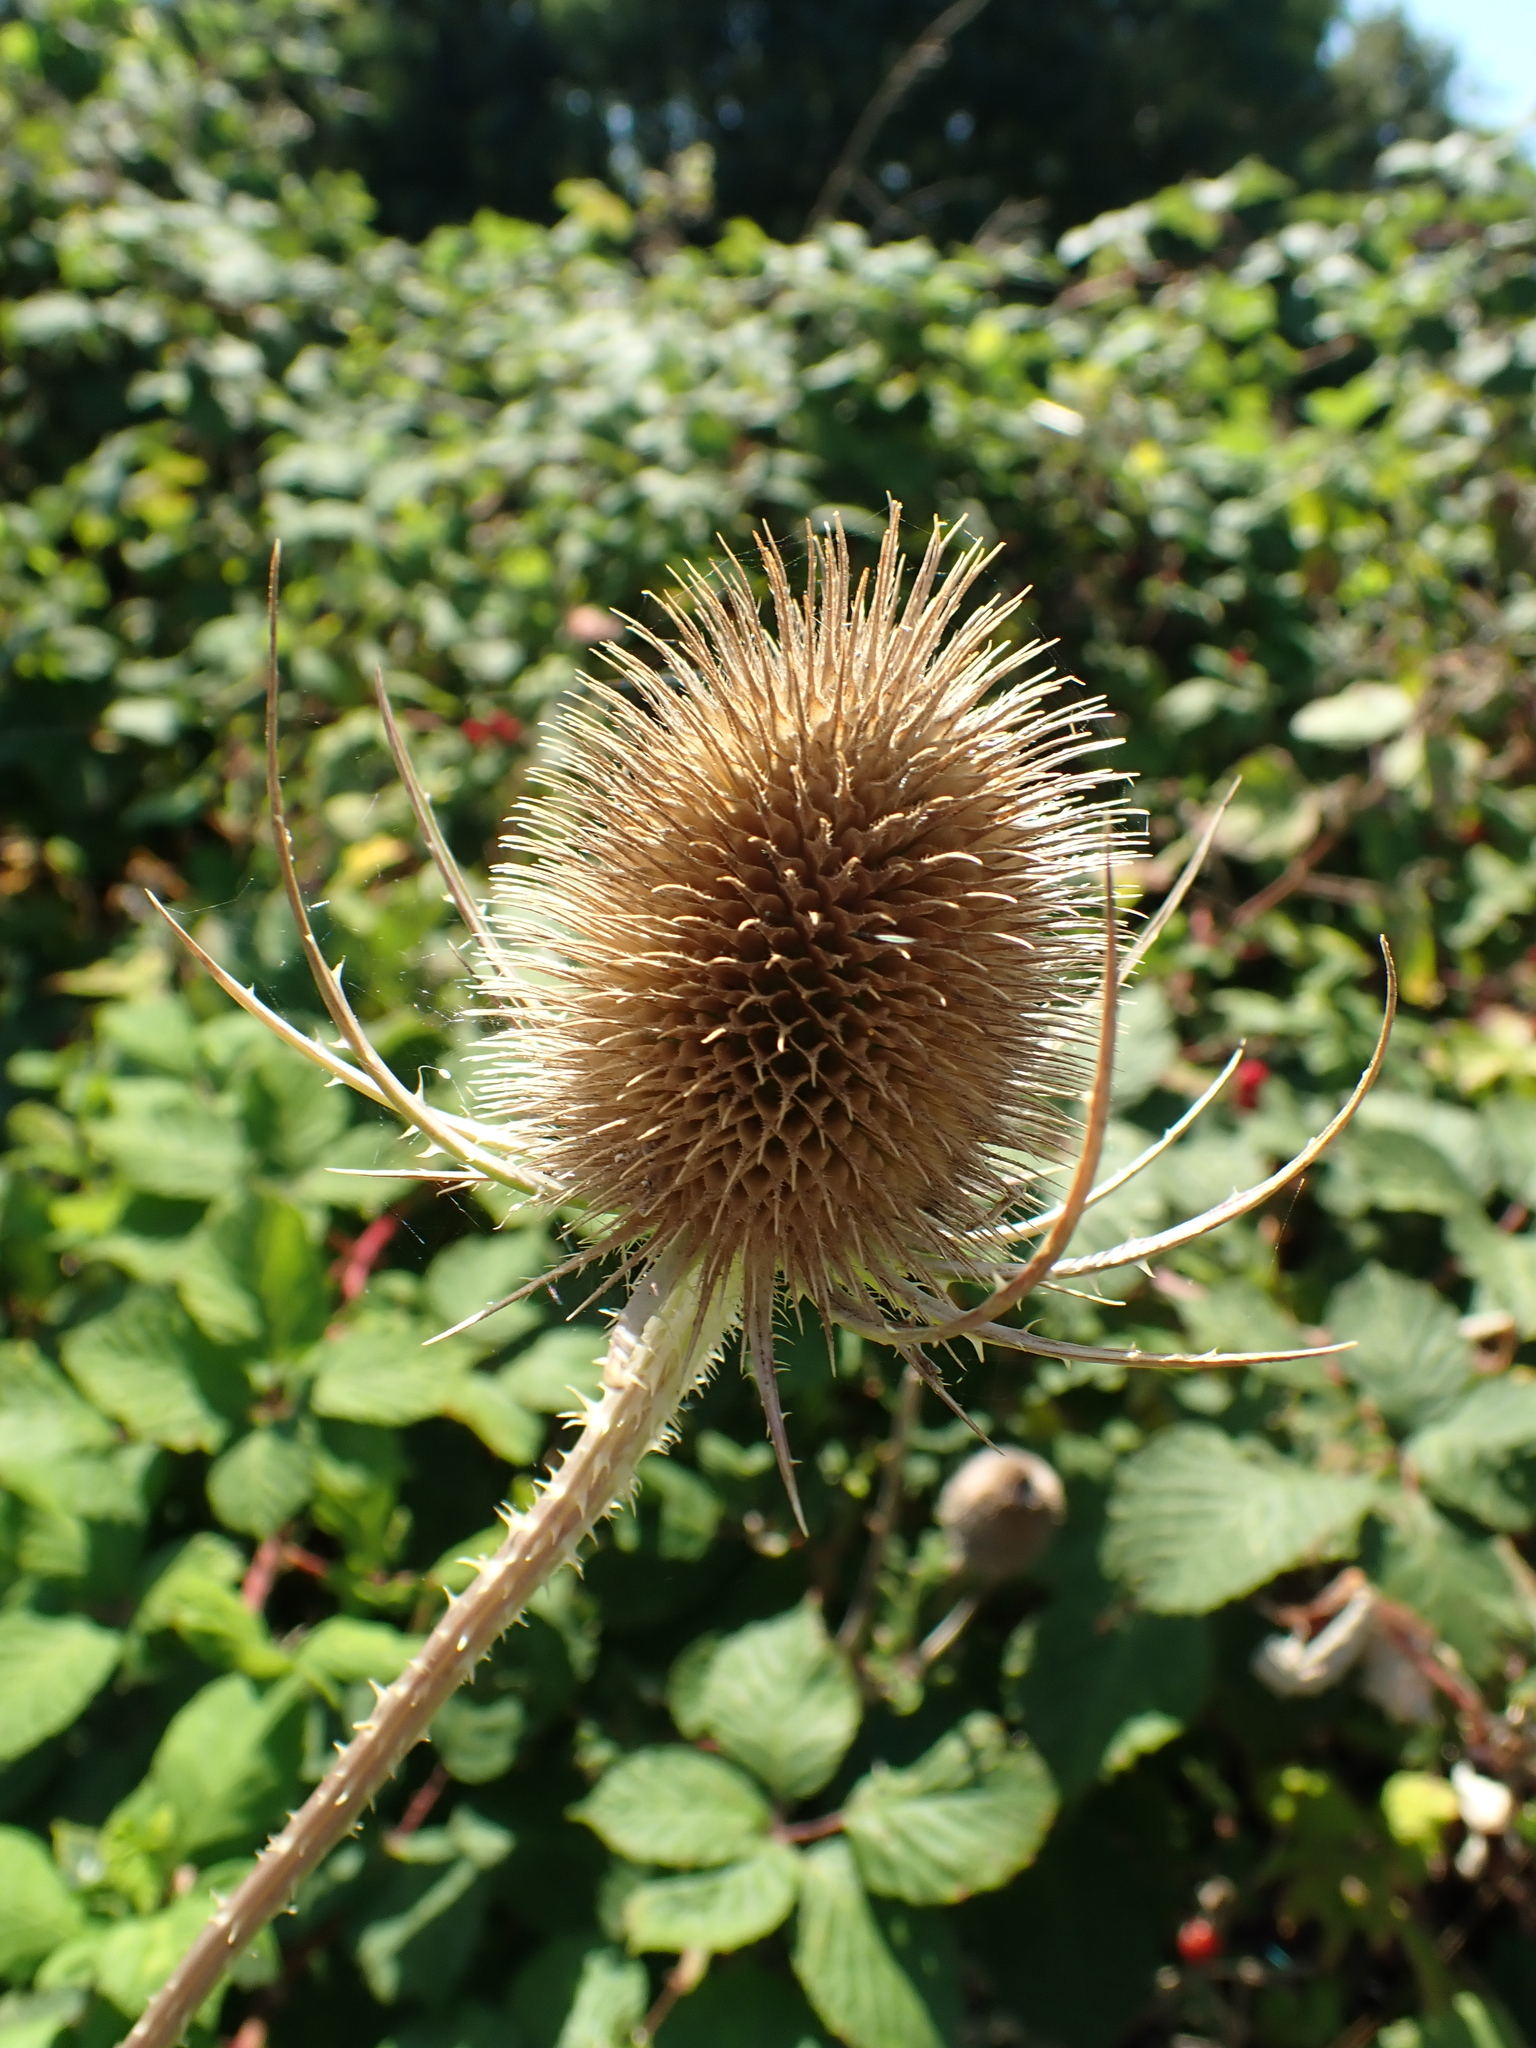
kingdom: Plantae
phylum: Tracheophyta
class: Magnoliopsida
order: Dipsacales
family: Caprifoliaceae
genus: Dipsacus
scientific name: Dipsacus fullonum
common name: Teasel
